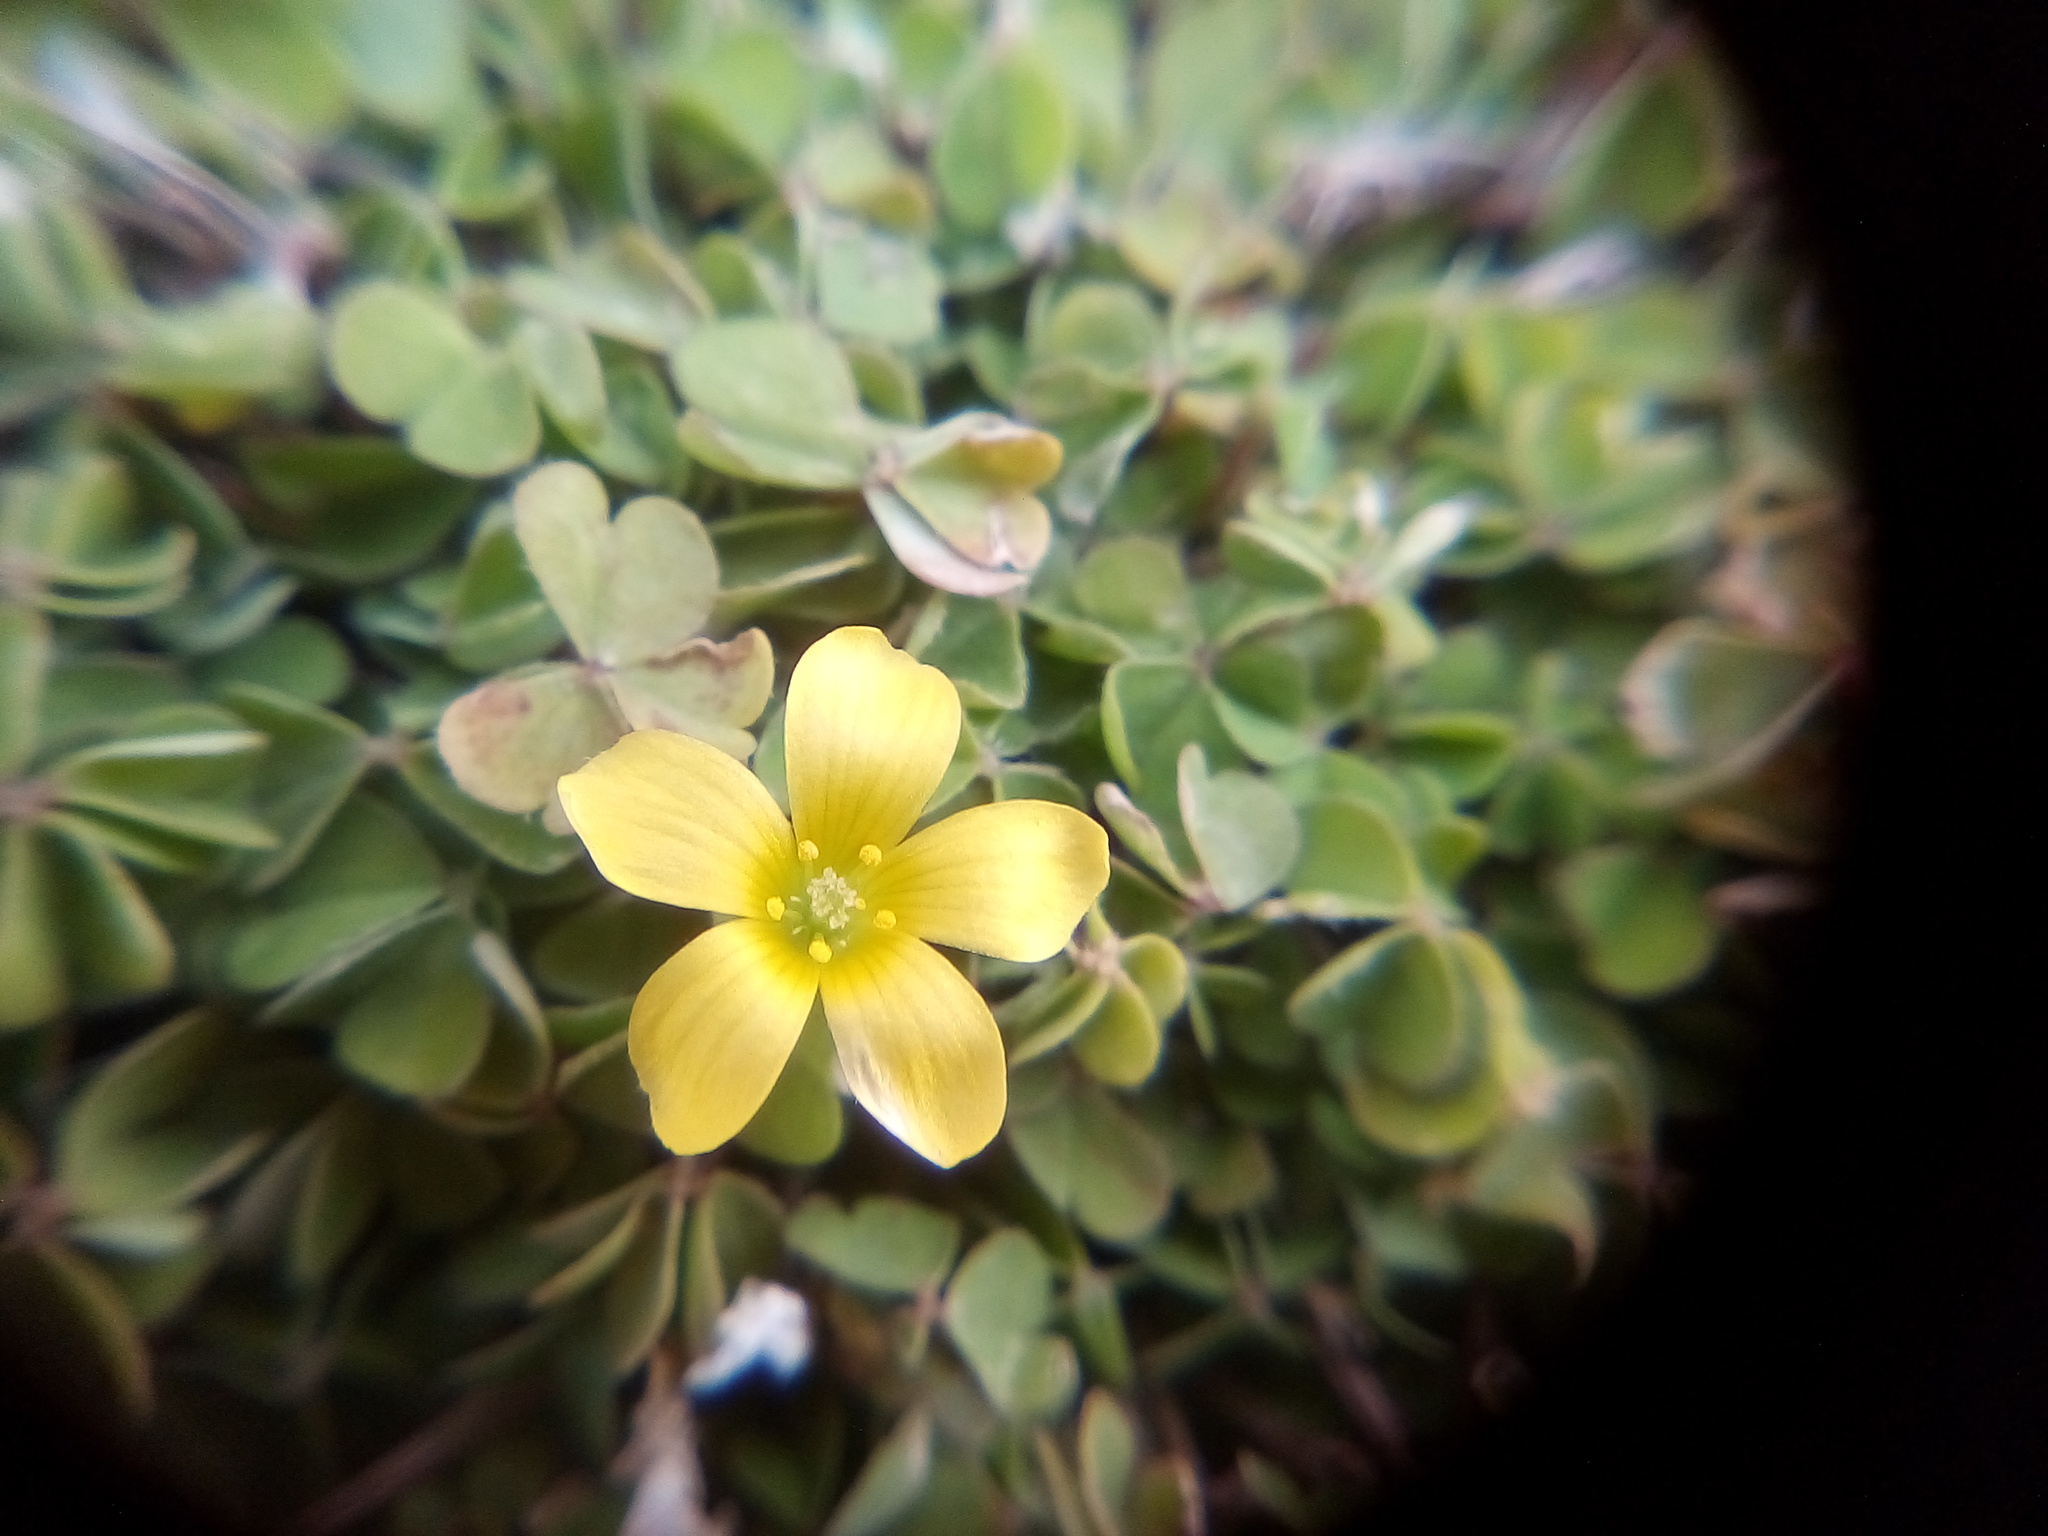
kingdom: Plantae
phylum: Tracheophyta
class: Magnoliopsida
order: Oxalidales
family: Oxalidaceae
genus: Oxalis
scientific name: Oxalis exilis
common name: Least yellow-sorrel
